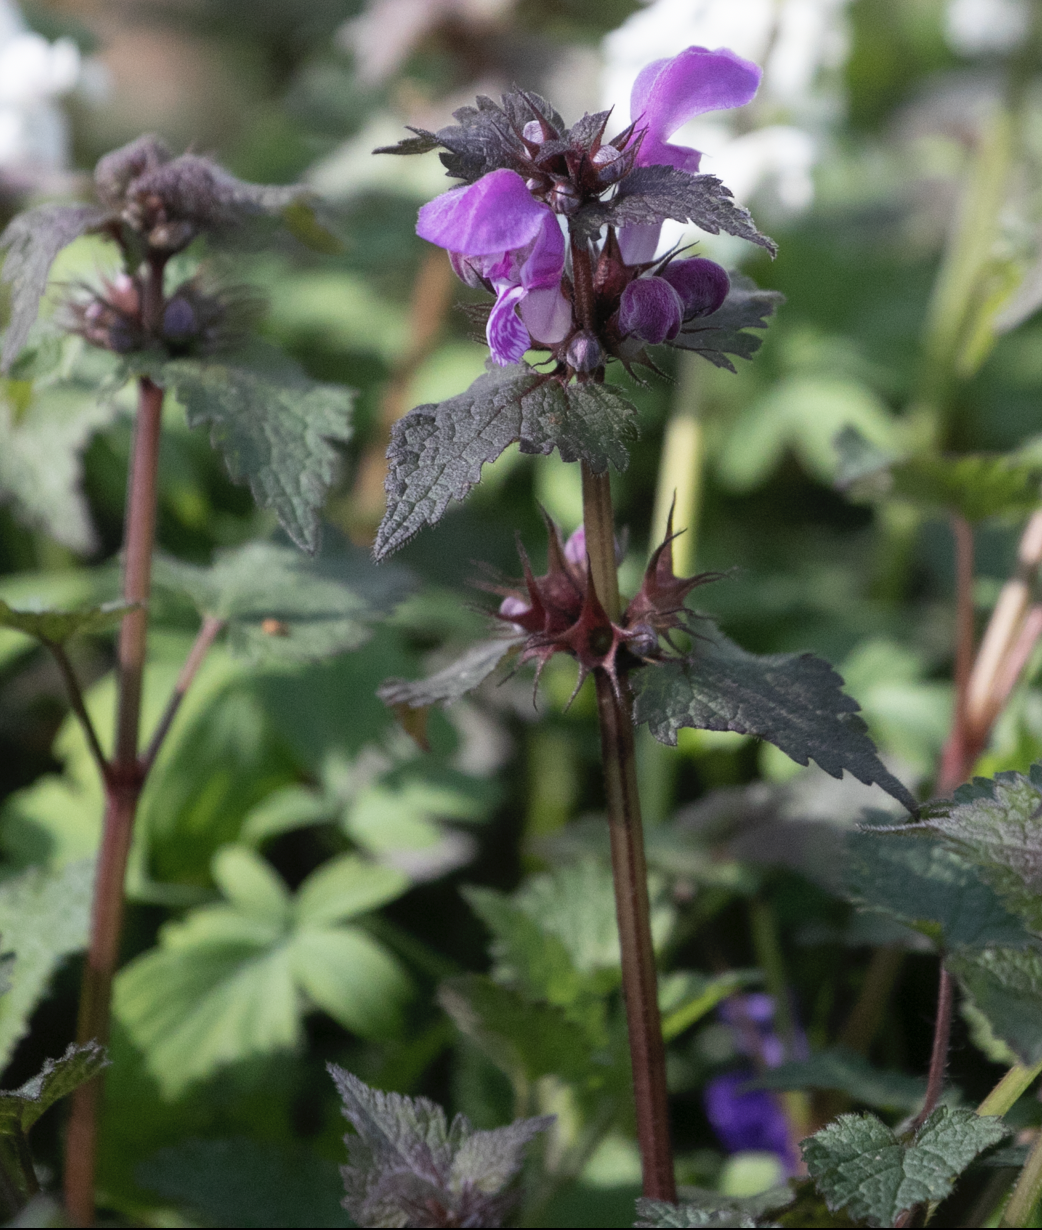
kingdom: Plantae
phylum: Tracheophyta
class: Magnoliopsida
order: Lamiales
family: Lamiaceae
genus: Lamium
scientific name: Lamium maculatum
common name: Spotted dead-nettle
